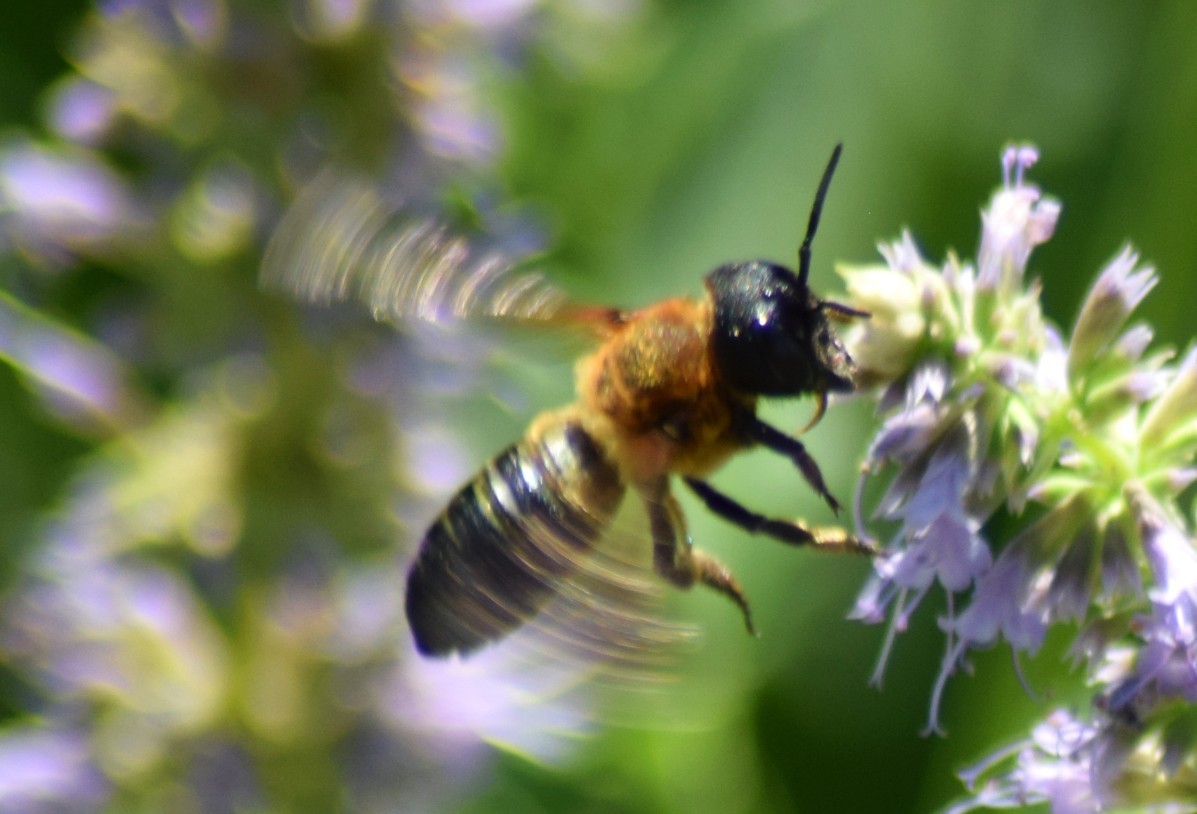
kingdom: Animalia
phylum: Arthropoda
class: Insecta
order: Hymenoptera
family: Megachilidae
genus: Megachile
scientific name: Megachile sculpturalis
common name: Sculptured resin bee
